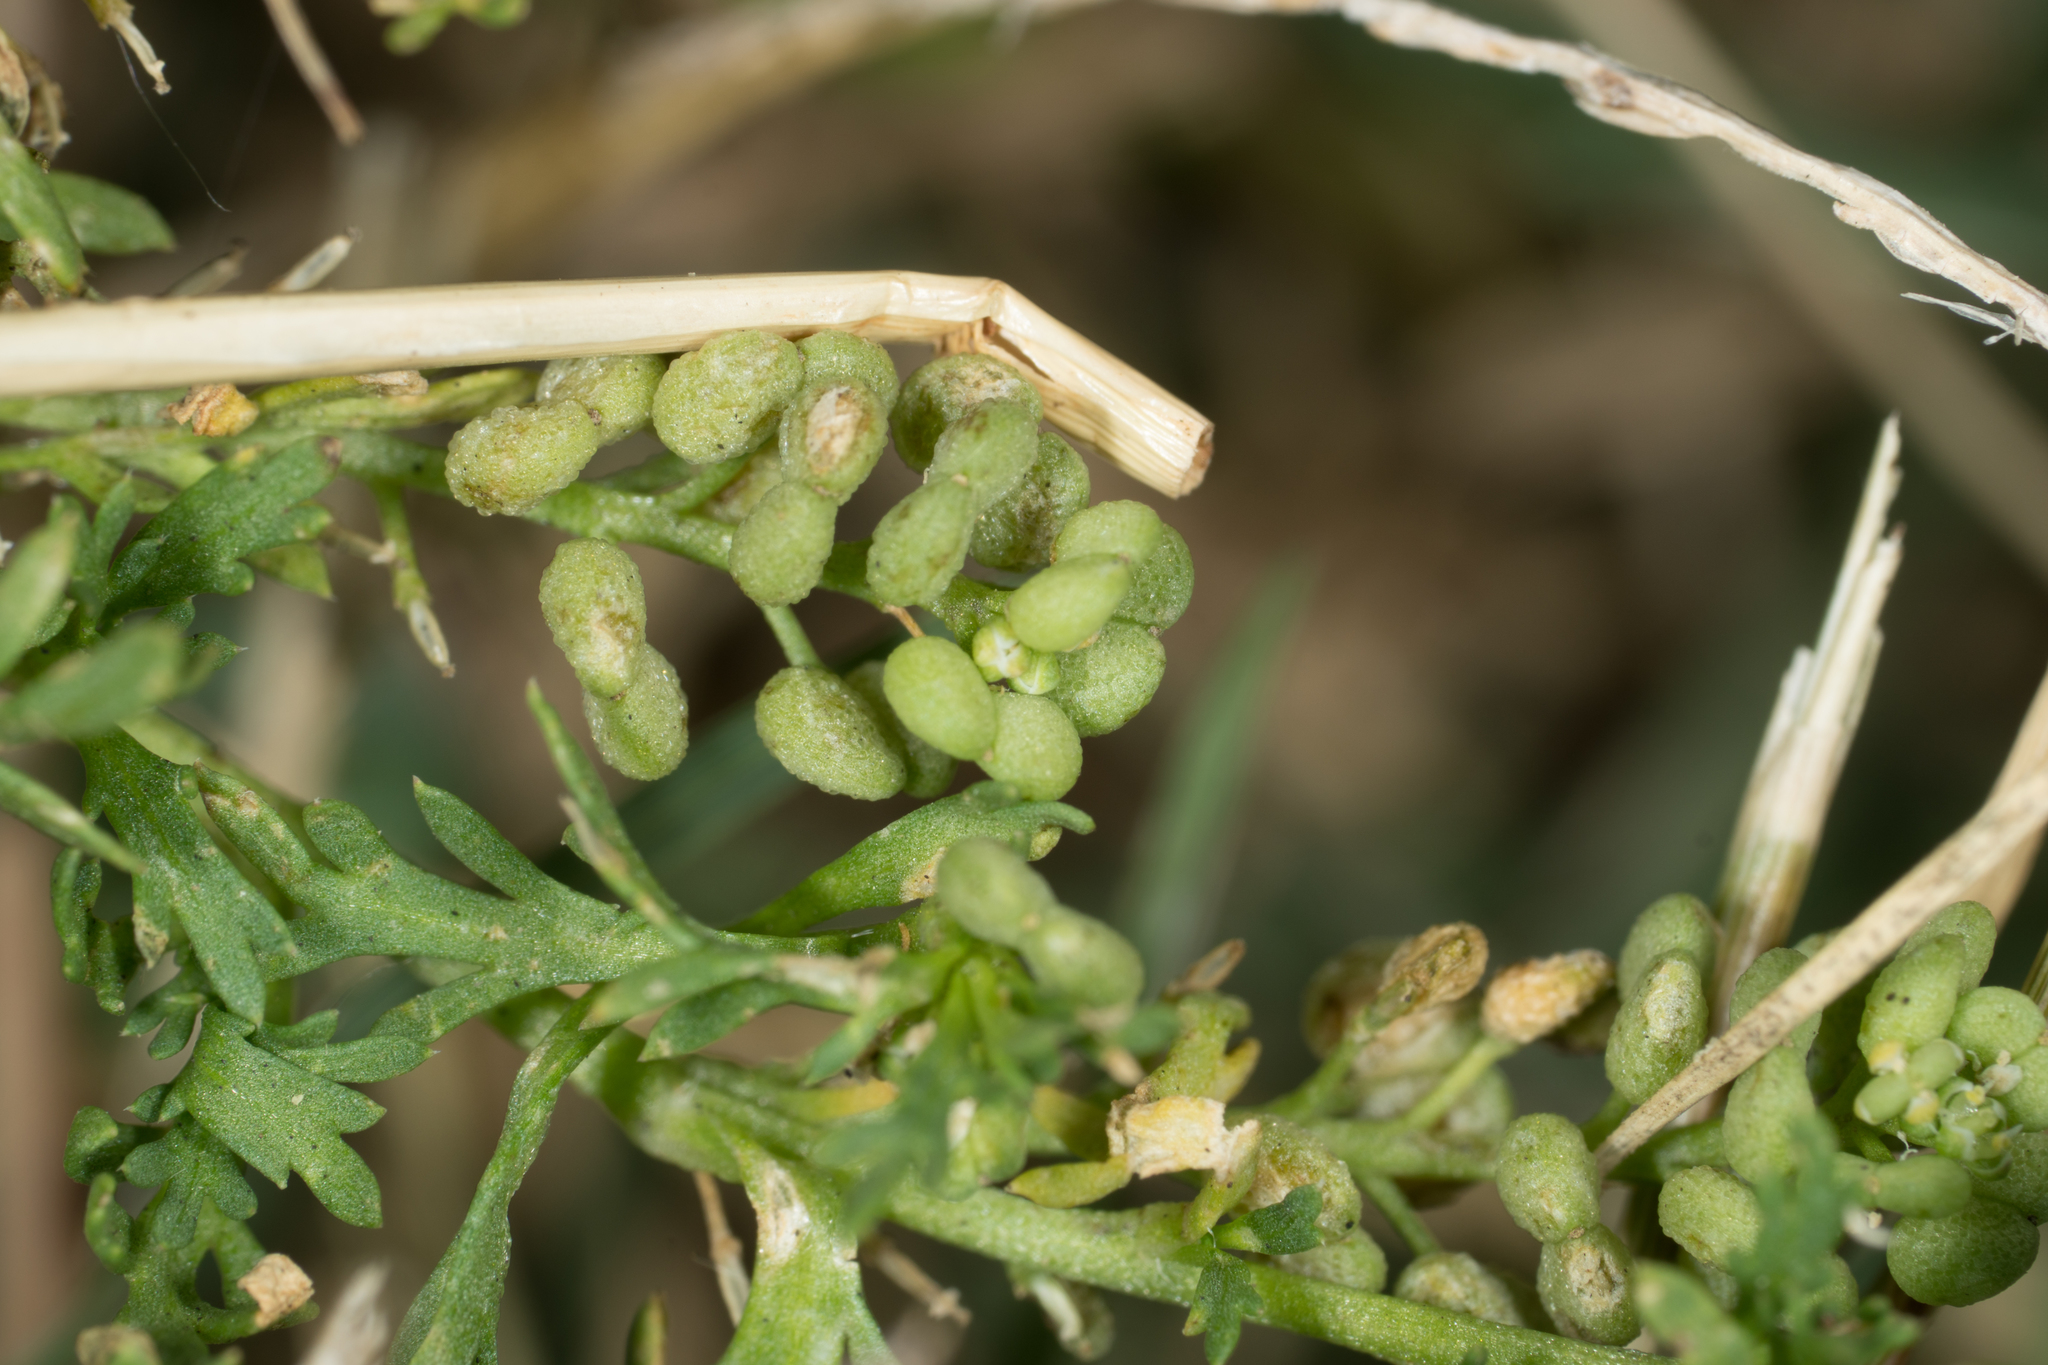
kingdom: Plantae
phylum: Tracheophyta
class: Magnoliopsida
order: Brassicales
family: Brassicaceae
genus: Lepidium
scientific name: Lepidium didymum
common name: Lesser swinecress
